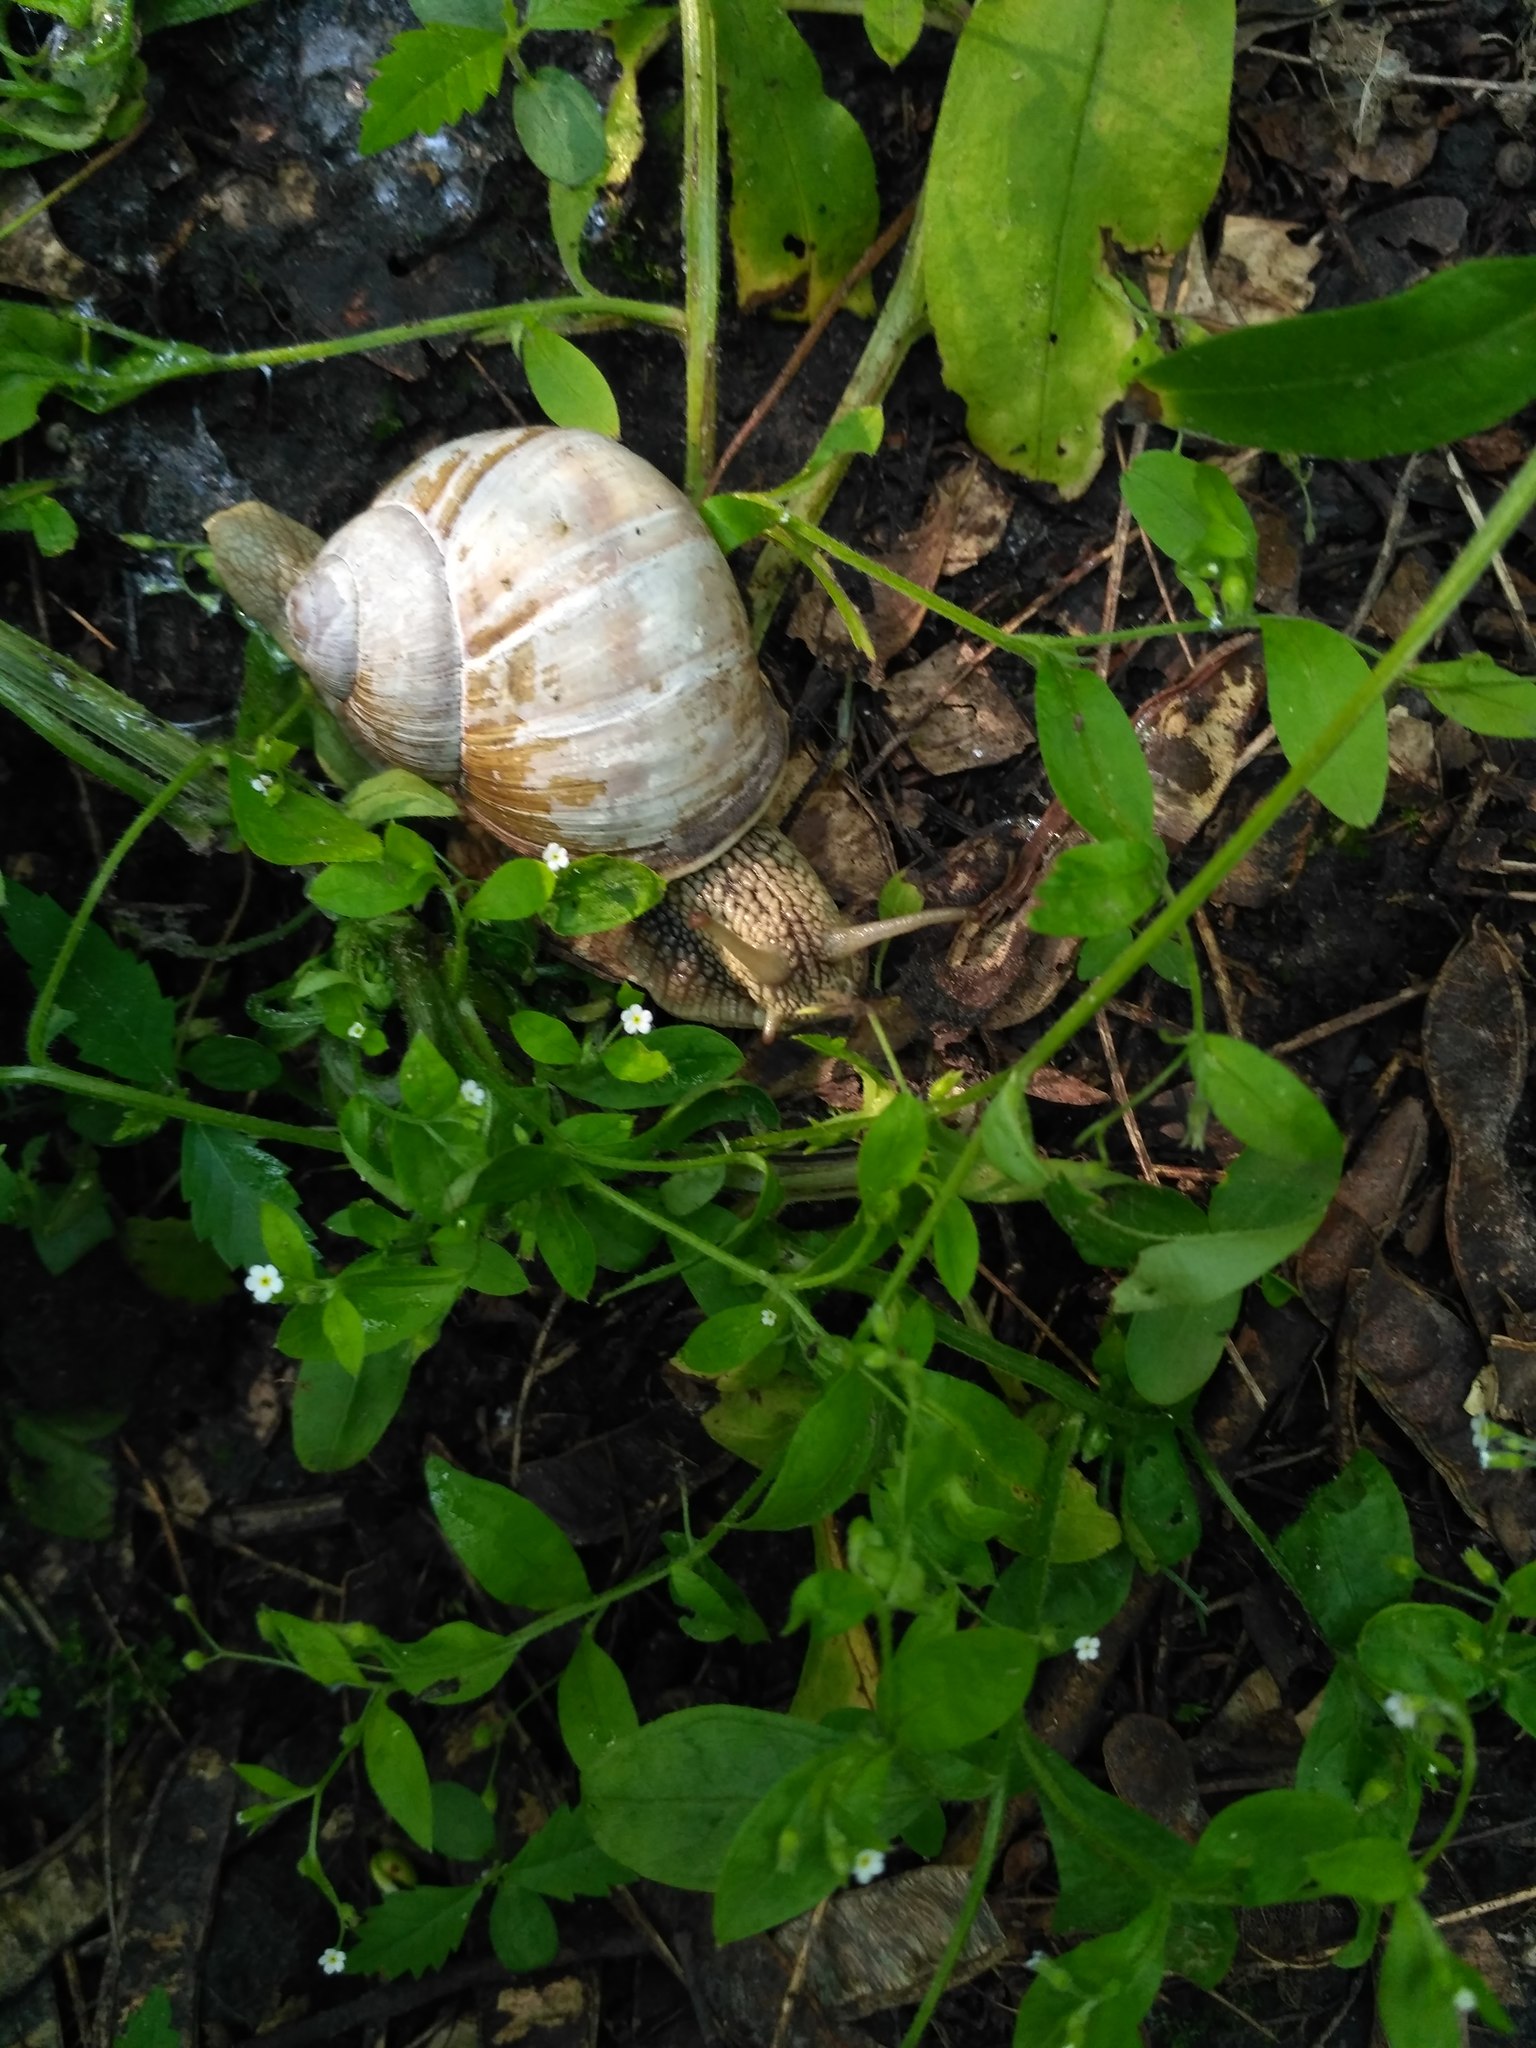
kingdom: Animalia
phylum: Mollusca
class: Gastropoda
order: Stylommatophora
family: Helicidae
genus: Helix
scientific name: Helix pomatia
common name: Roman snail
